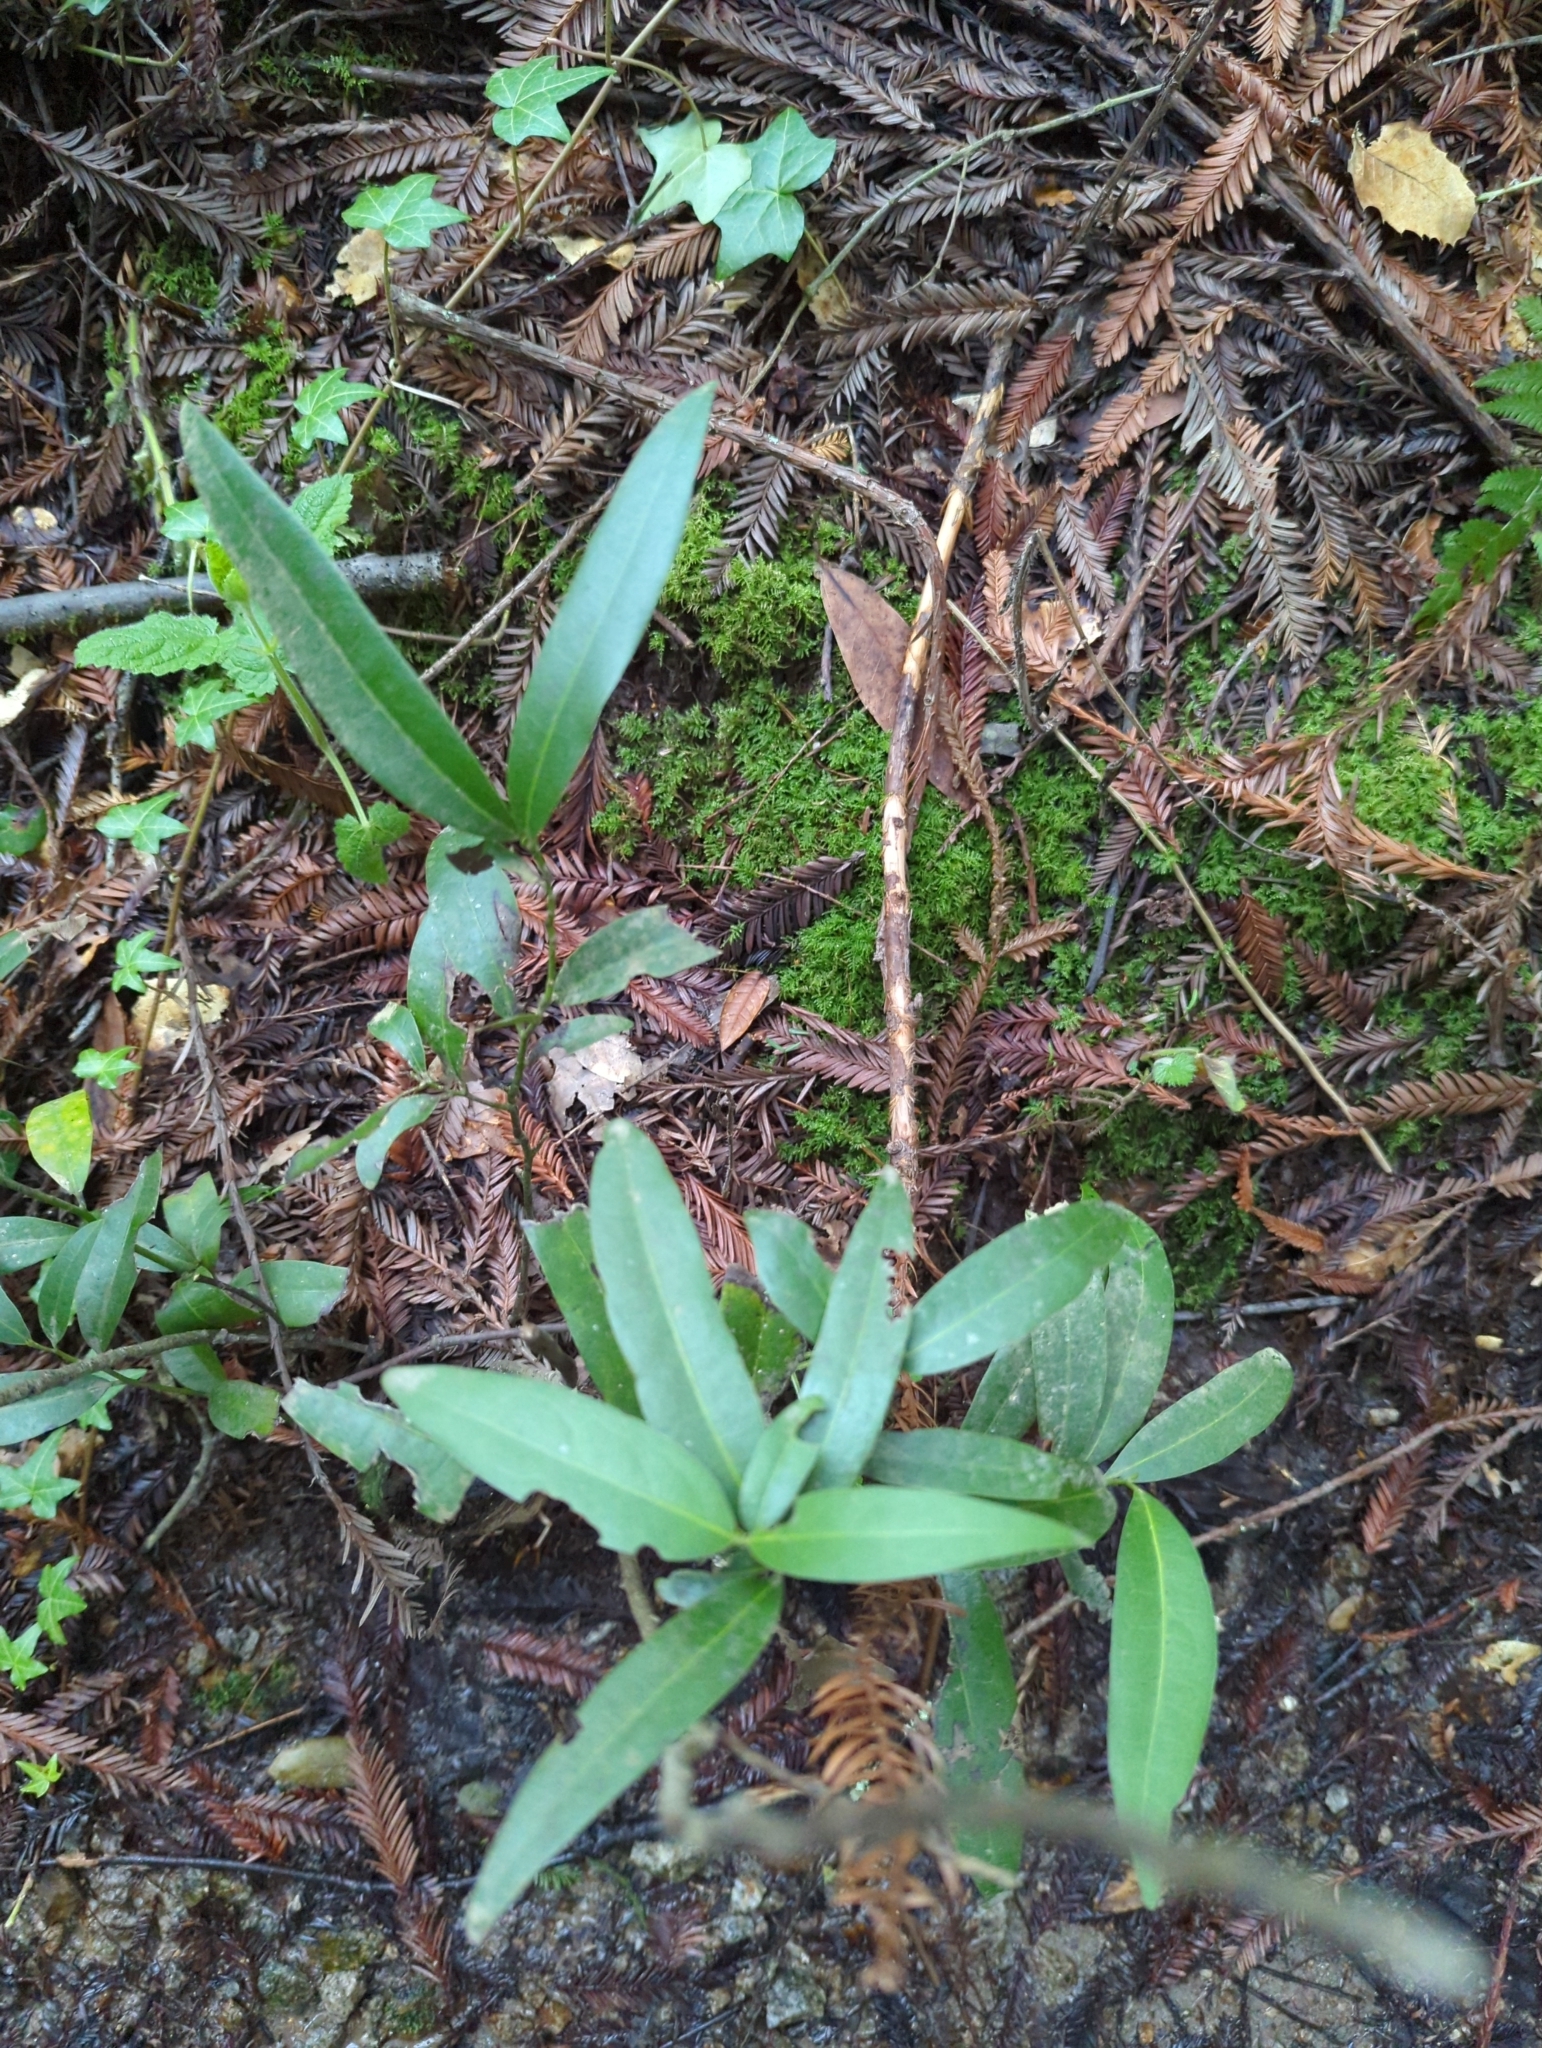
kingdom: Plantae
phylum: Tracheophyta
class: Magnoliopsida
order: Laurales
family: Lauraceae
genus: Umbellularia
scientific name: Umbellularia californica
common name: California bay
